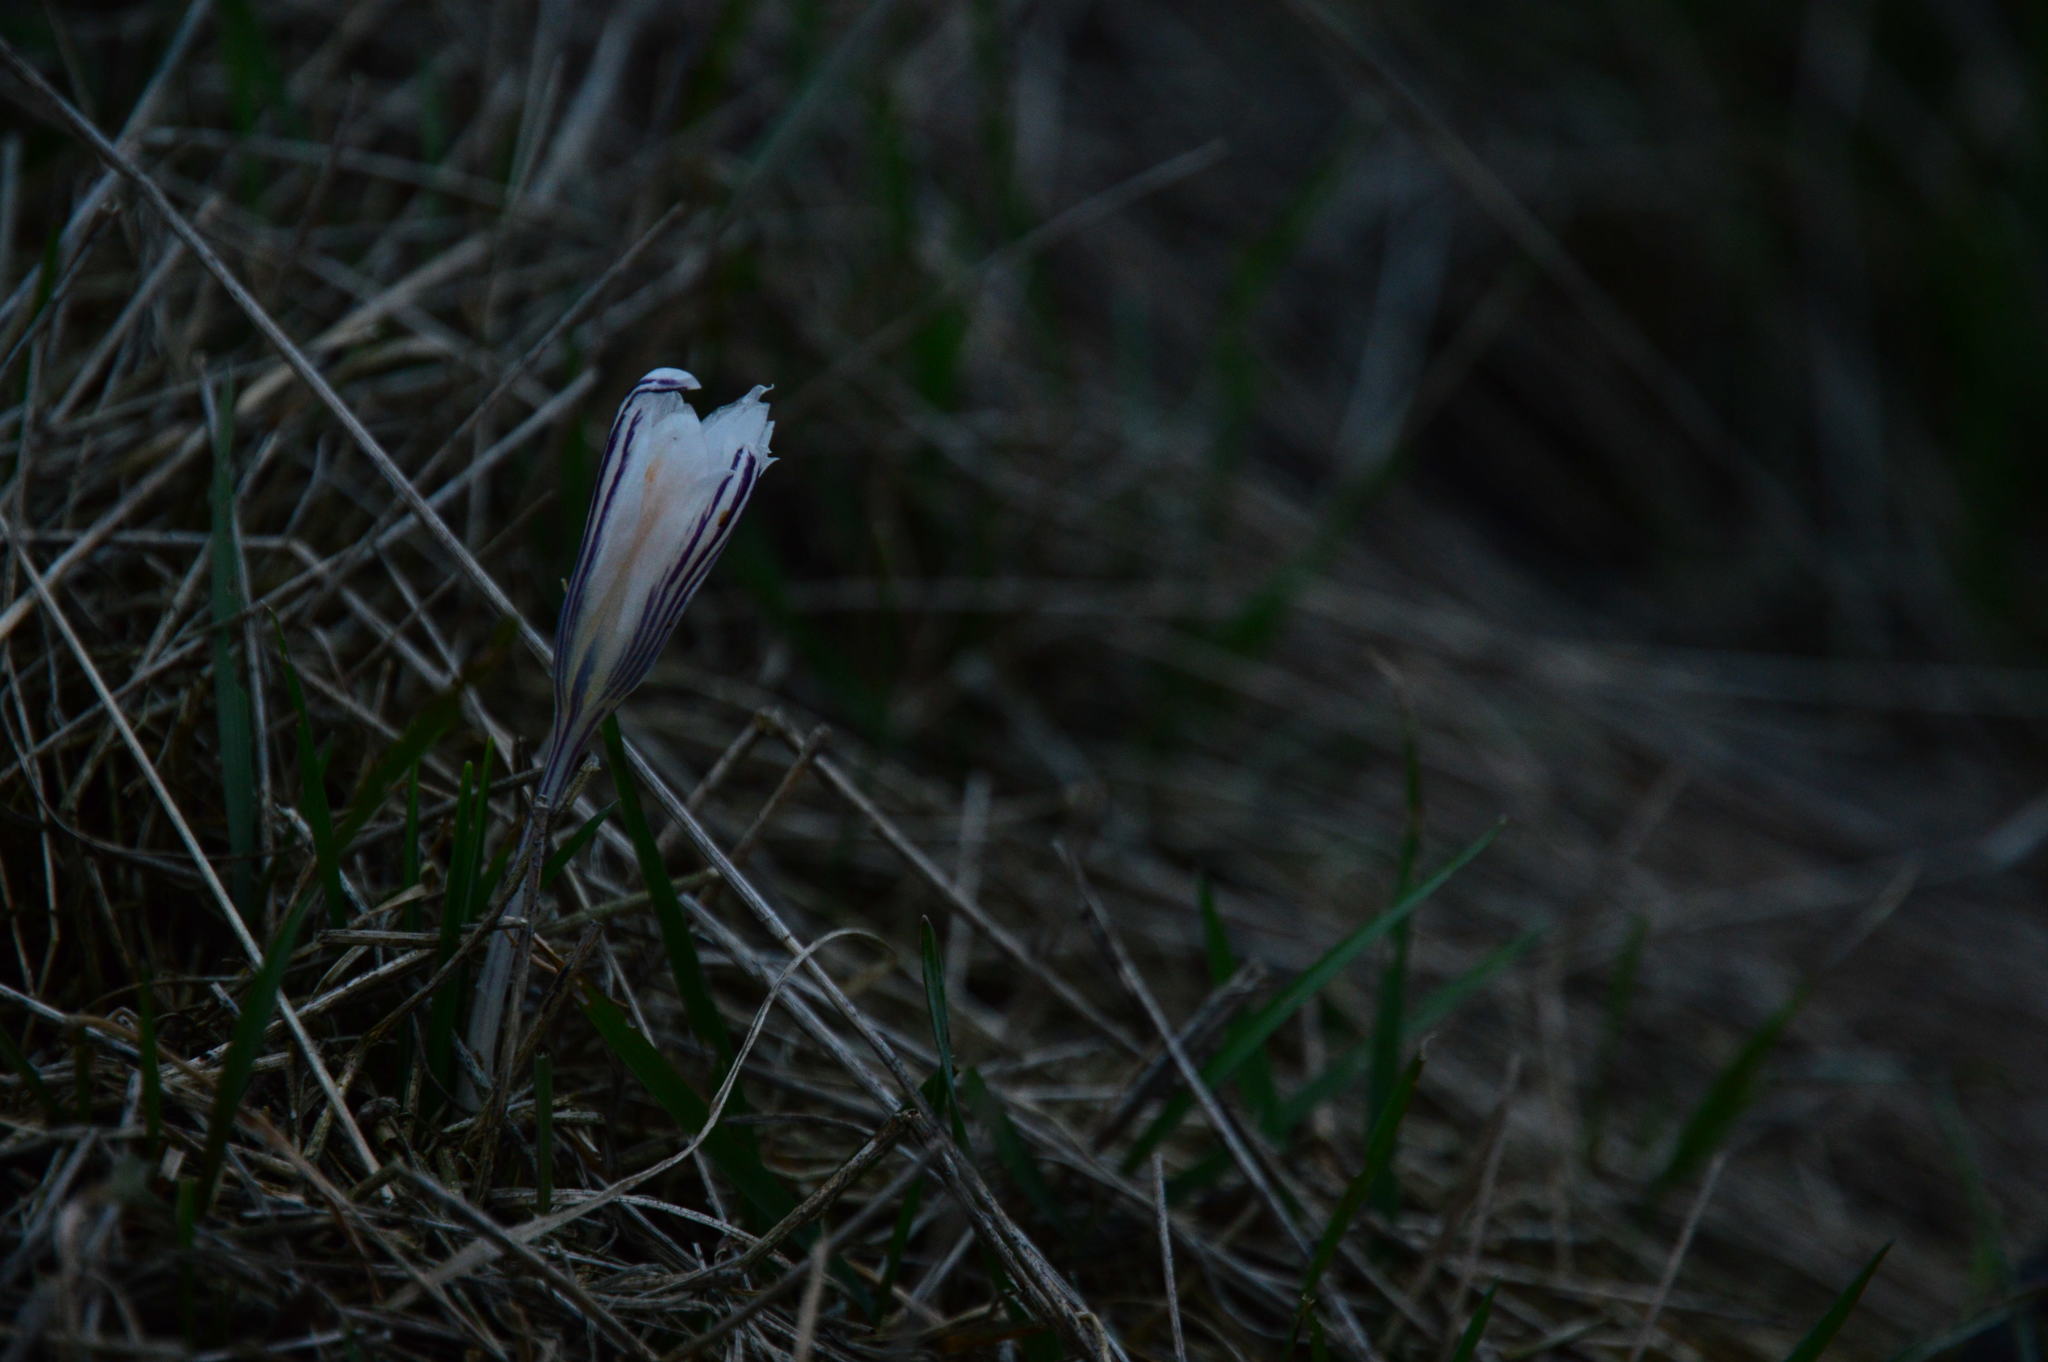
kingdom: Plantae
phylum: Tracheophyta
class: Liliopsida
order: Asparagales
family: Iridaceae
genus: Crocus
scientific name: Crocus reticulatus
